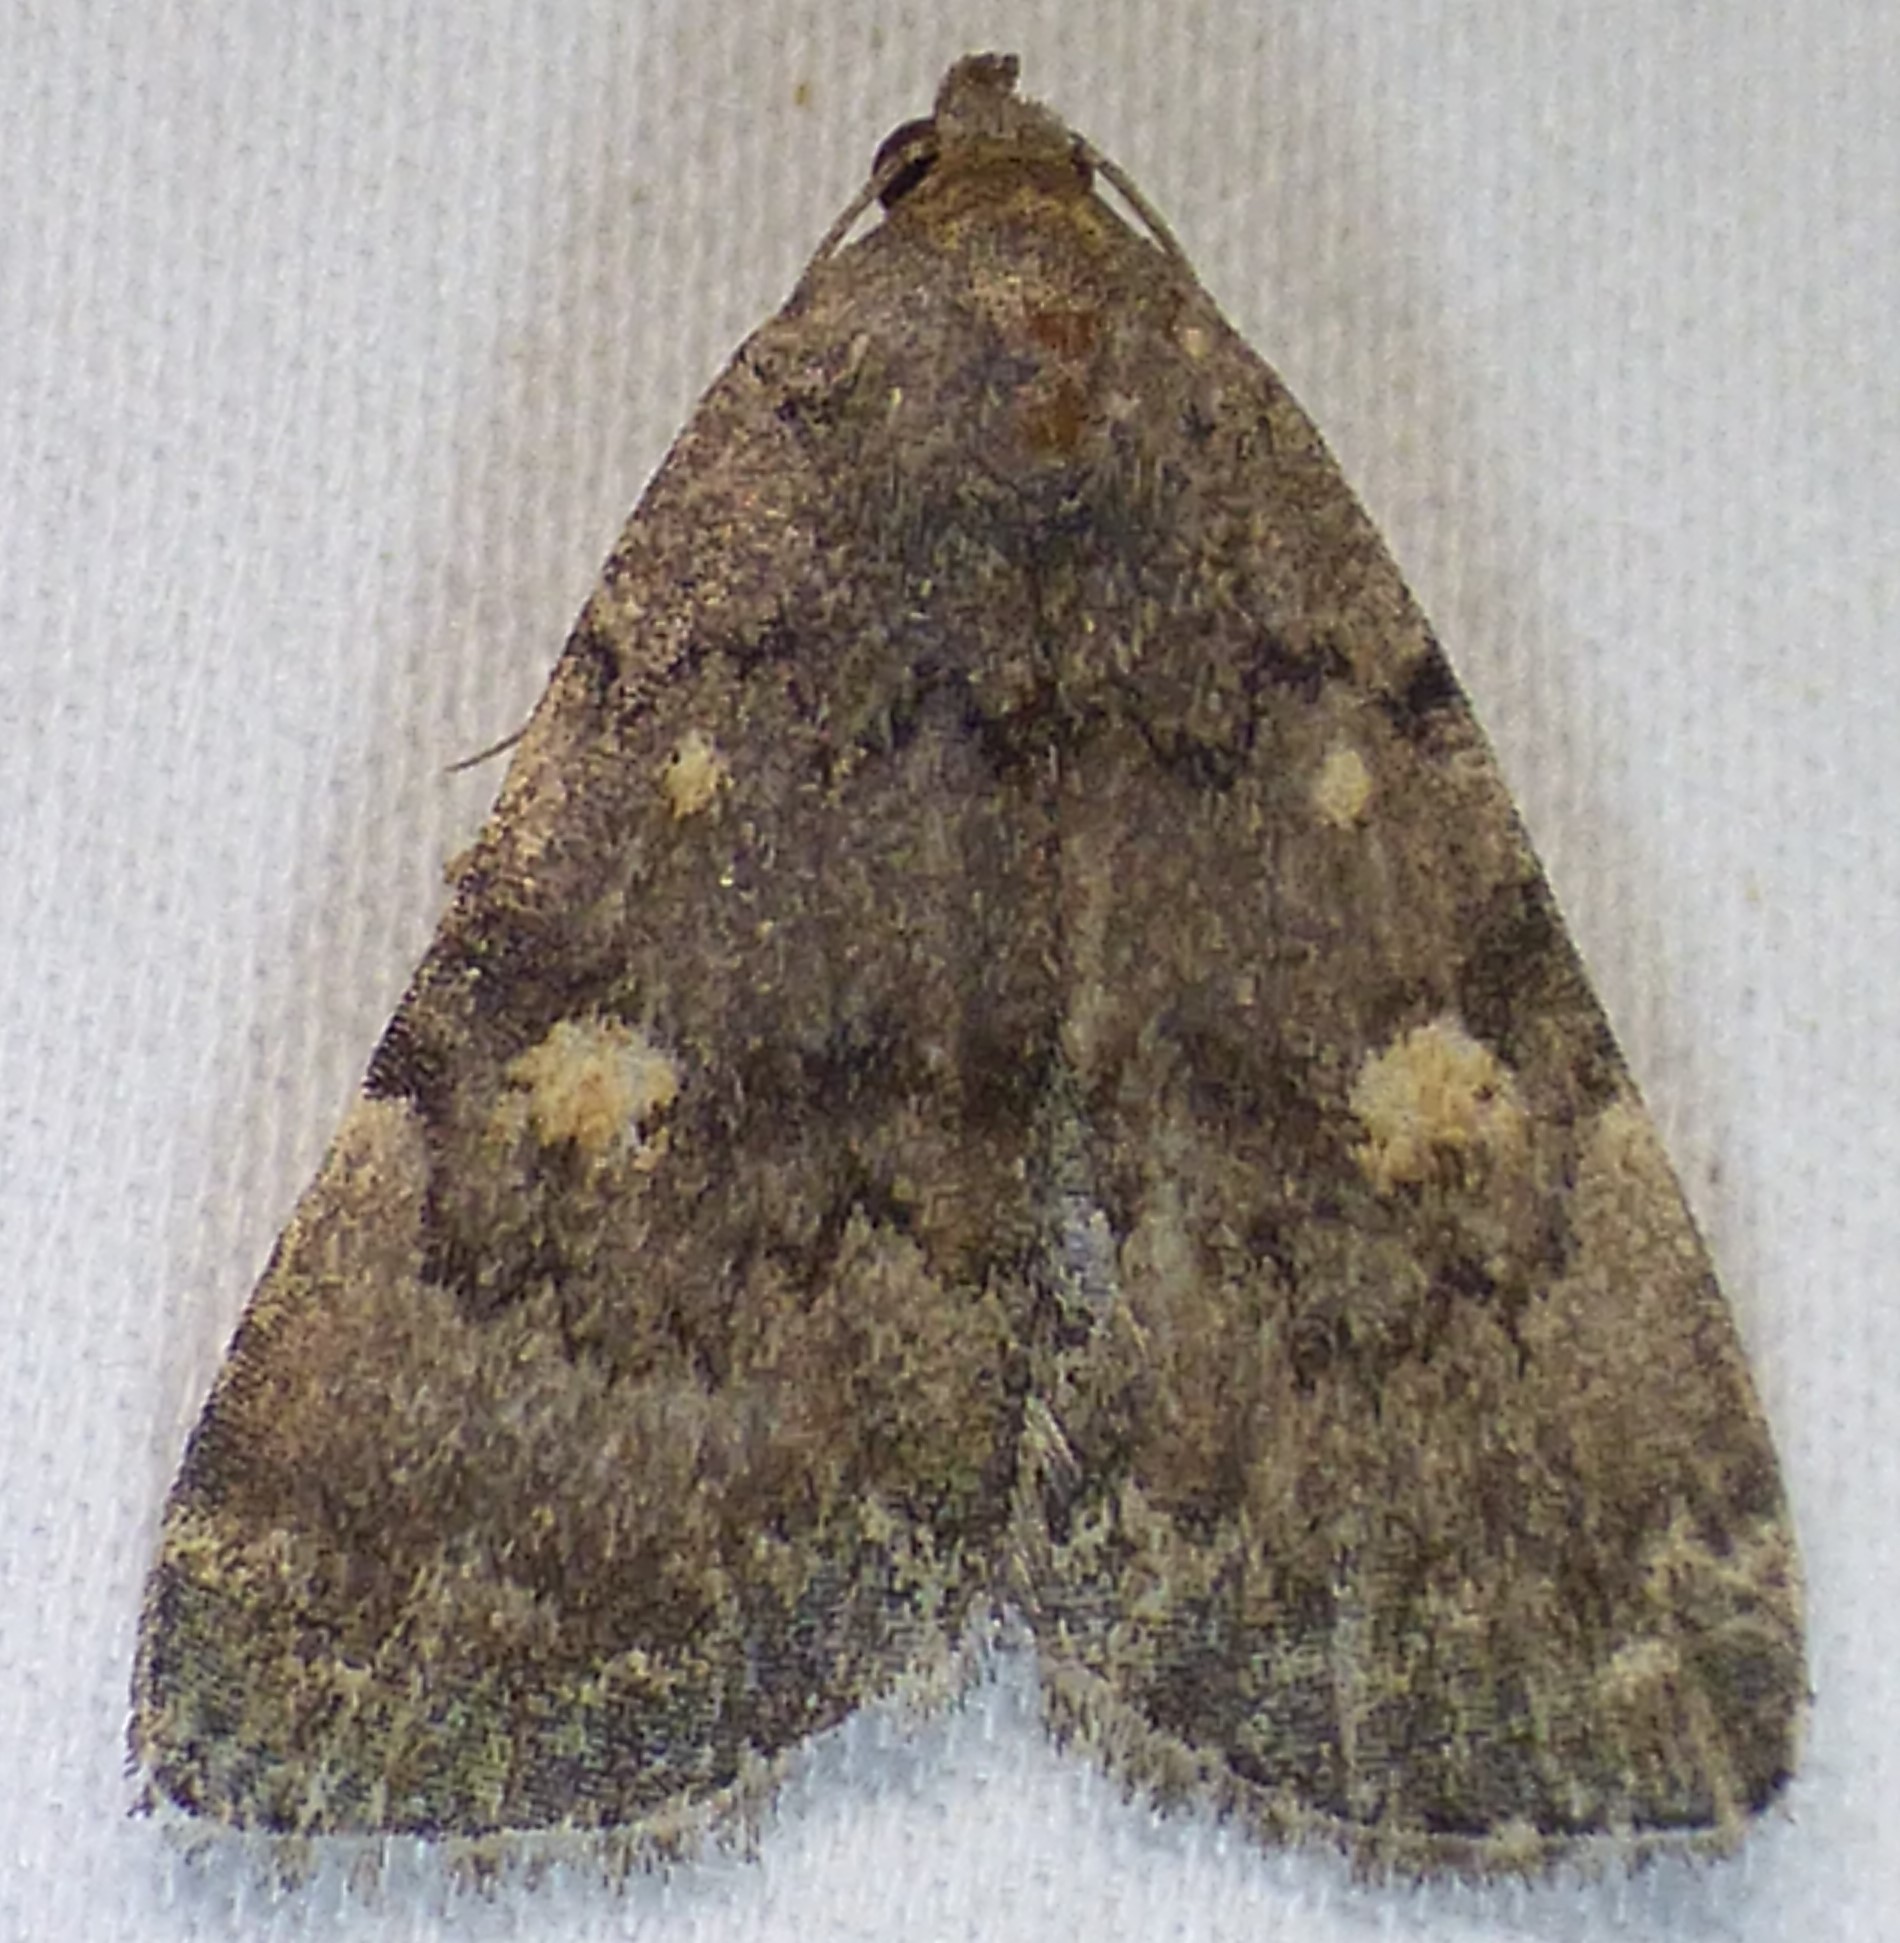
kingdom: Animalia
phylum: Arthropoda
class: Insecta
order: Lepidoptera
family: Erebidae
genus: Idia
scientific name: Idia aemula
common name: Common idia moth
